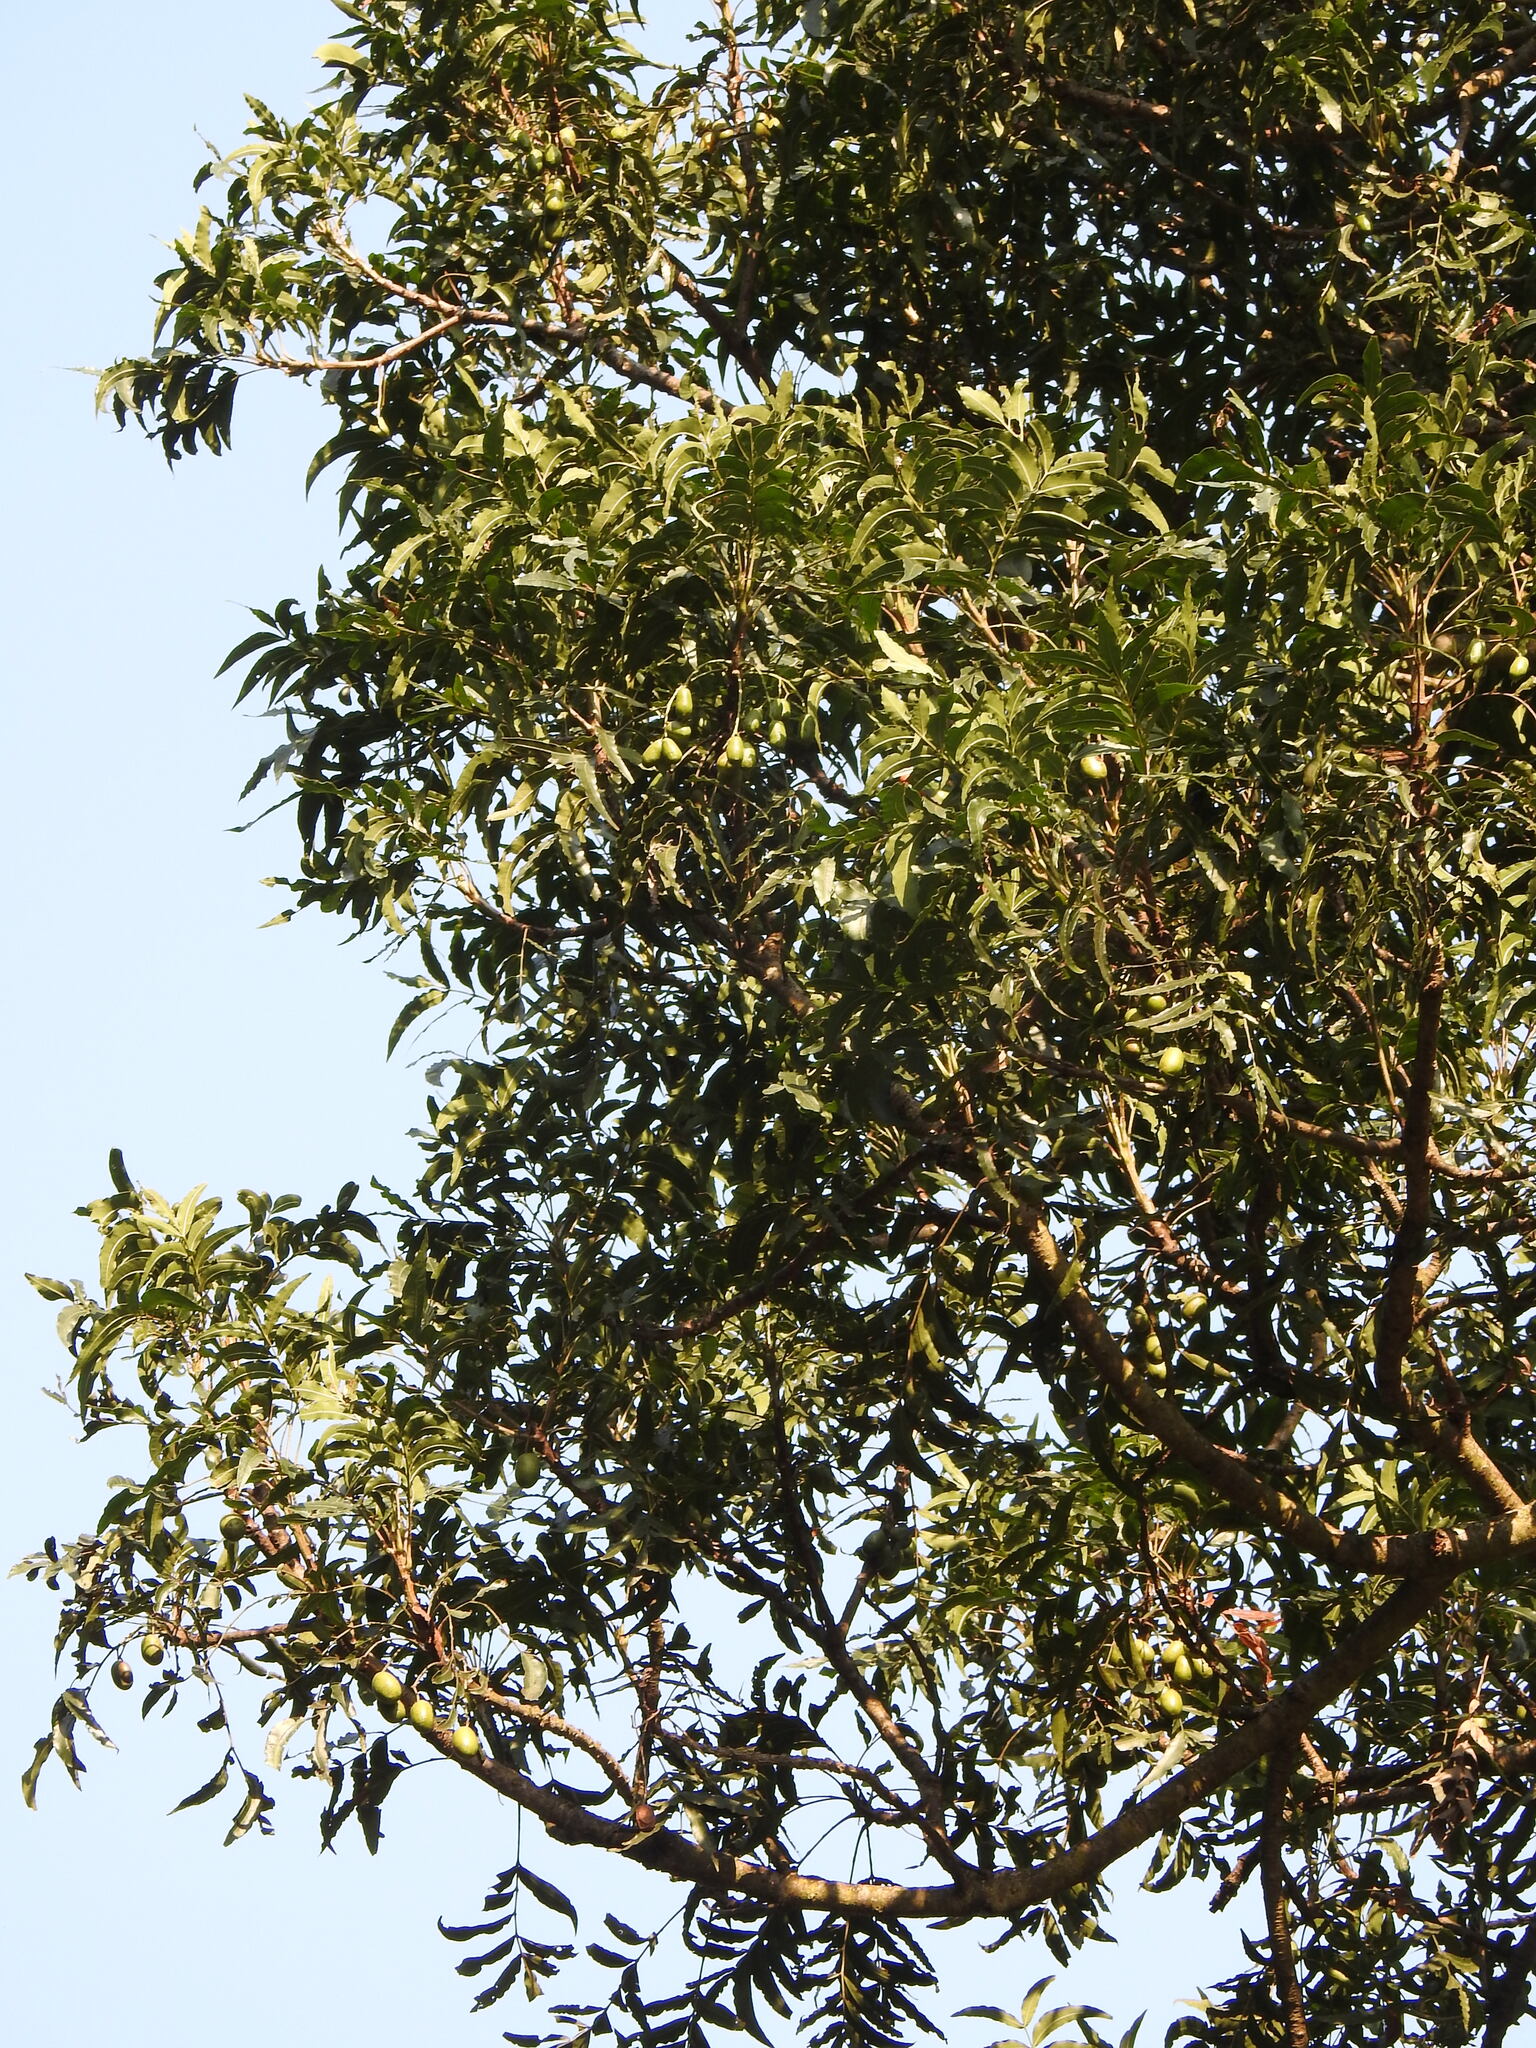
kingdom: Plantae
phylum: Tracheophyta
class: Magnoliopsida
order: Sapindales
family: Anacardiaceae
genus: Harpephyllum
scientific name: Harpephyllum caffrum
